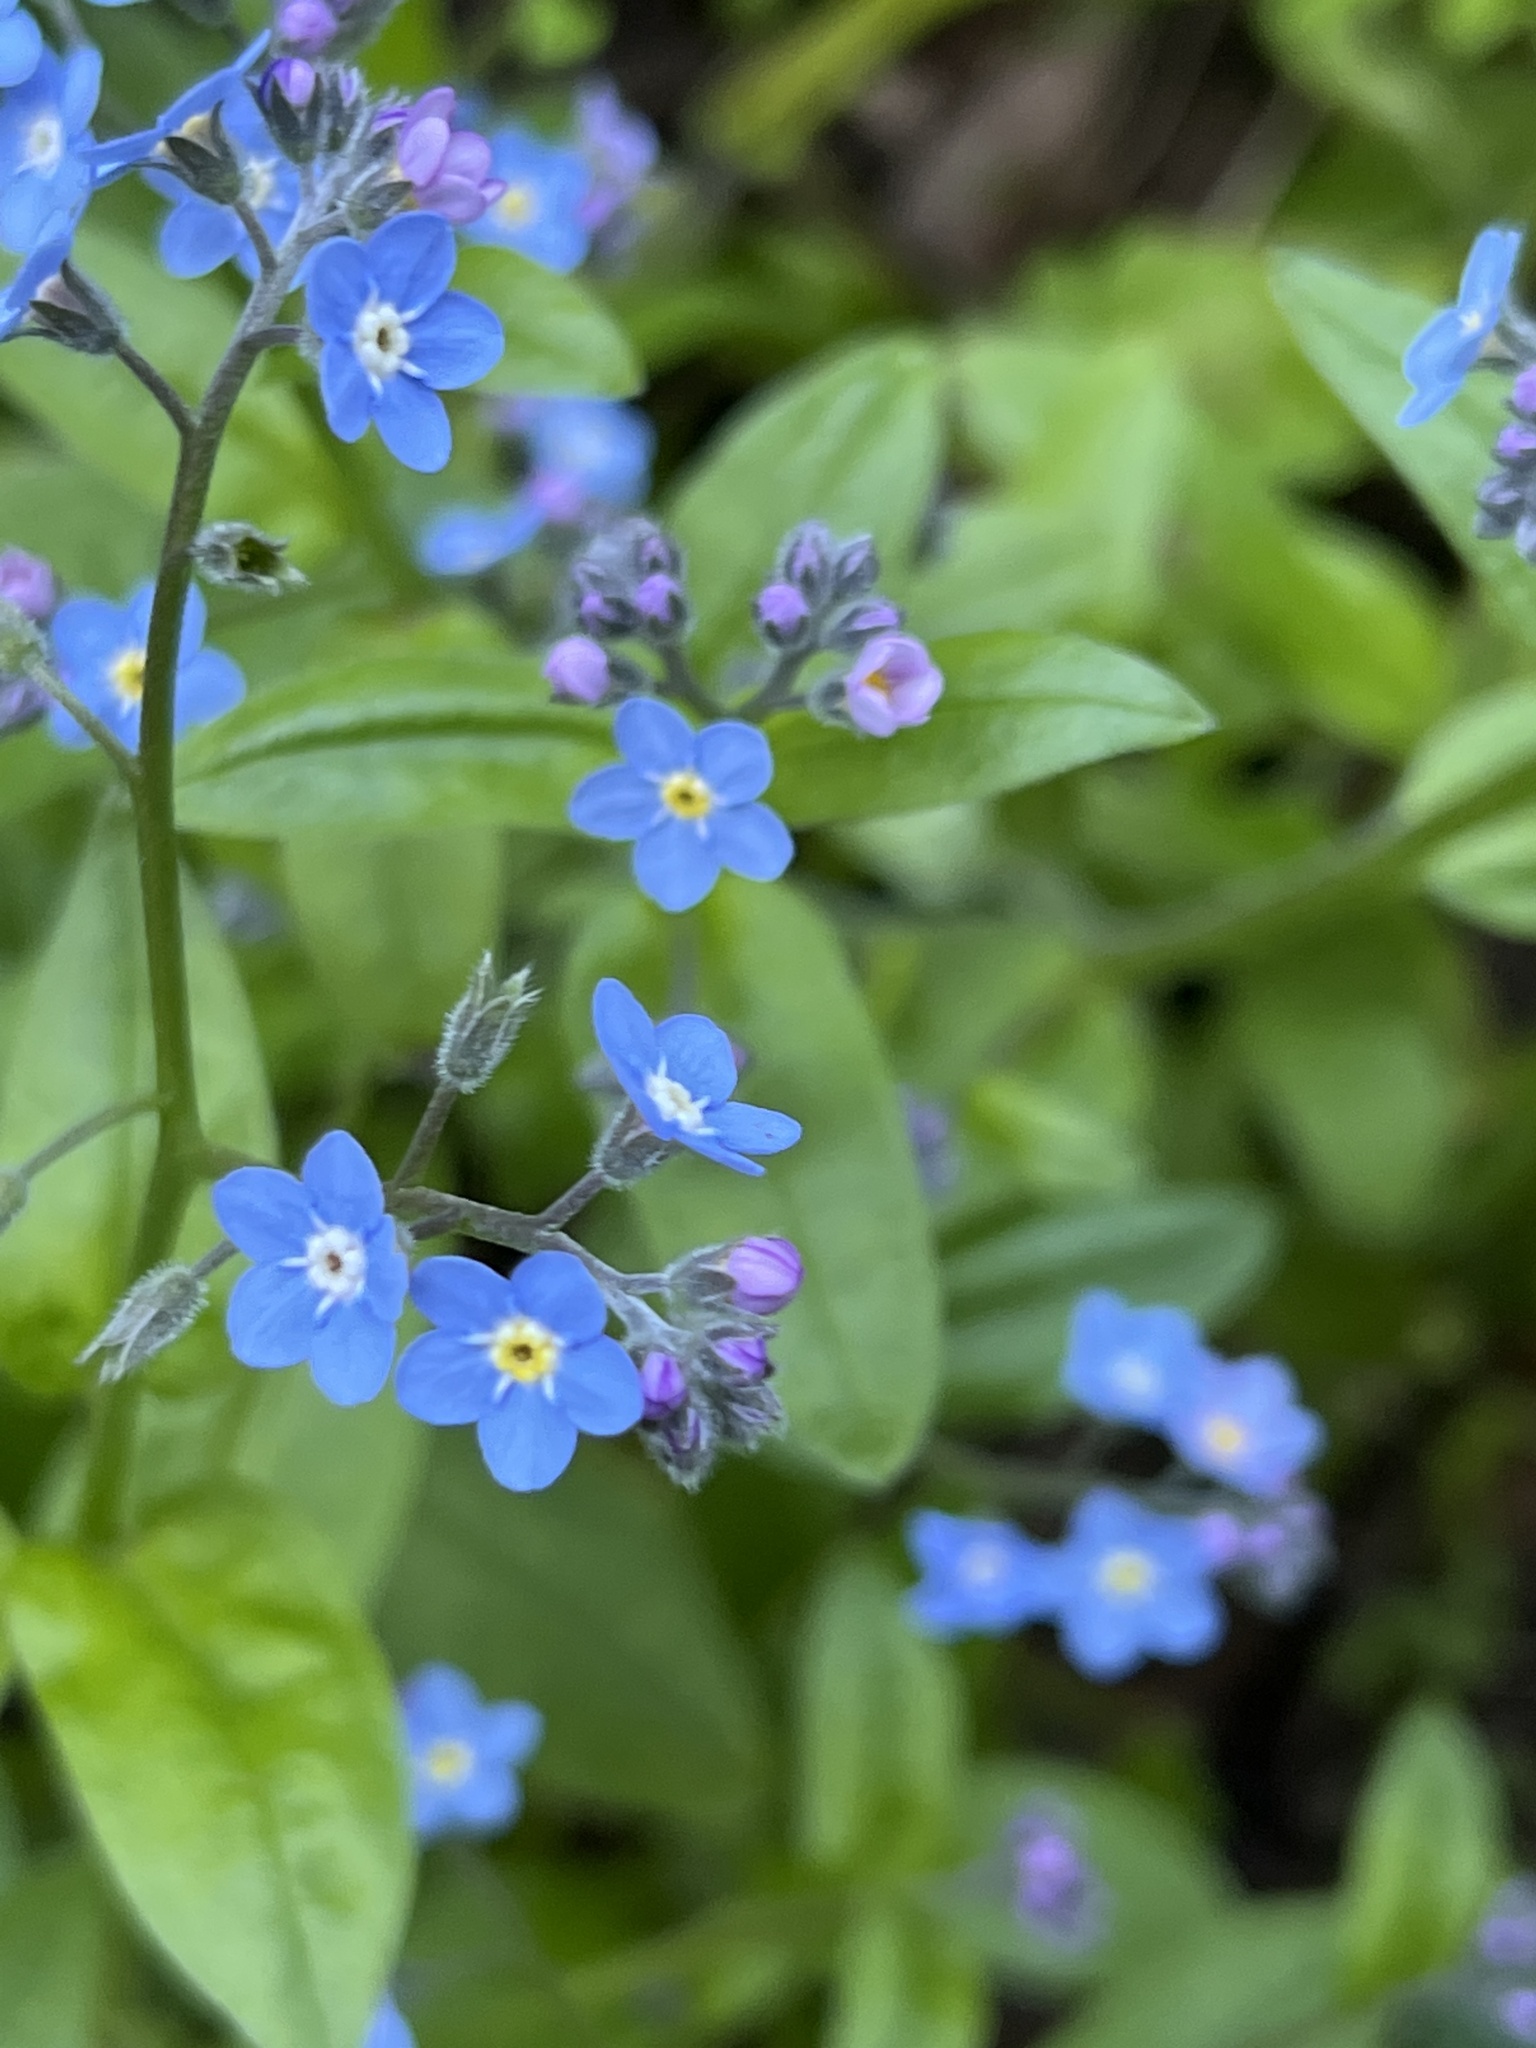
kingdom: Plantae
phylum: Tracheophyta
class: Magnoliopsida
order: Boraginales
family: Boraginaceae
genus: Myosotis
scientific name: Myosotis latifolia
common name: Broadleaf forget-me-not
